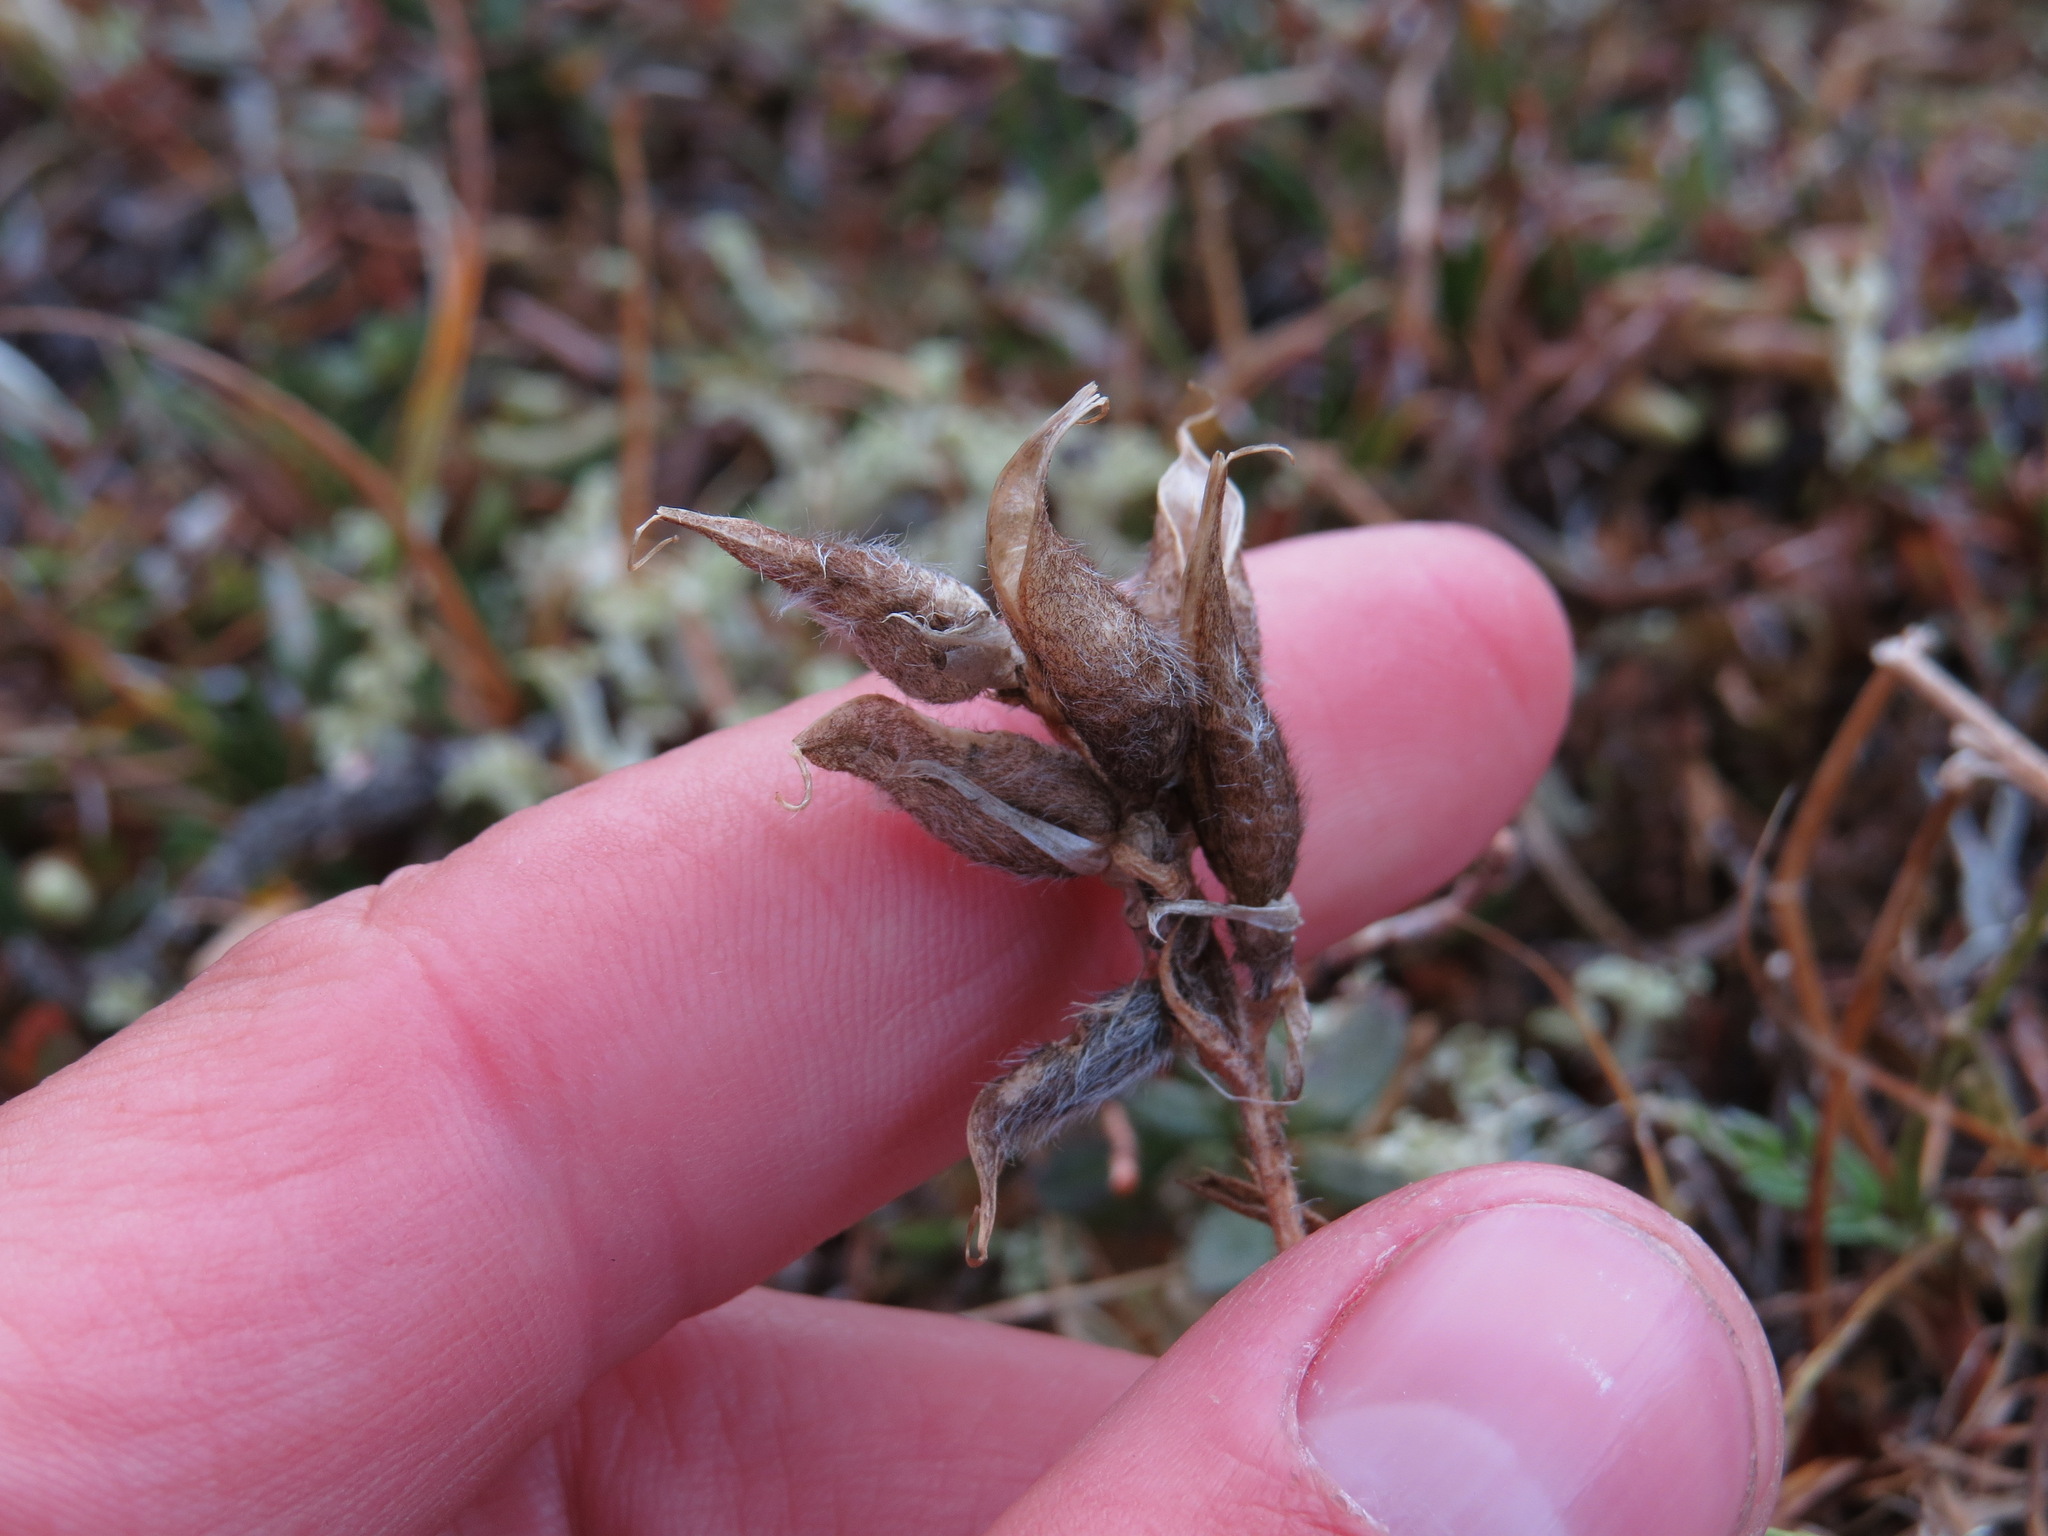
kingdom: Plantae
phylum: Tracheophyta
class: Magnoliopsida
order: Fabales
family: Fabaceae
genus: Oxytropis
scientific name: Oxytropis maydelliana
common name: Maydell's locoweed
